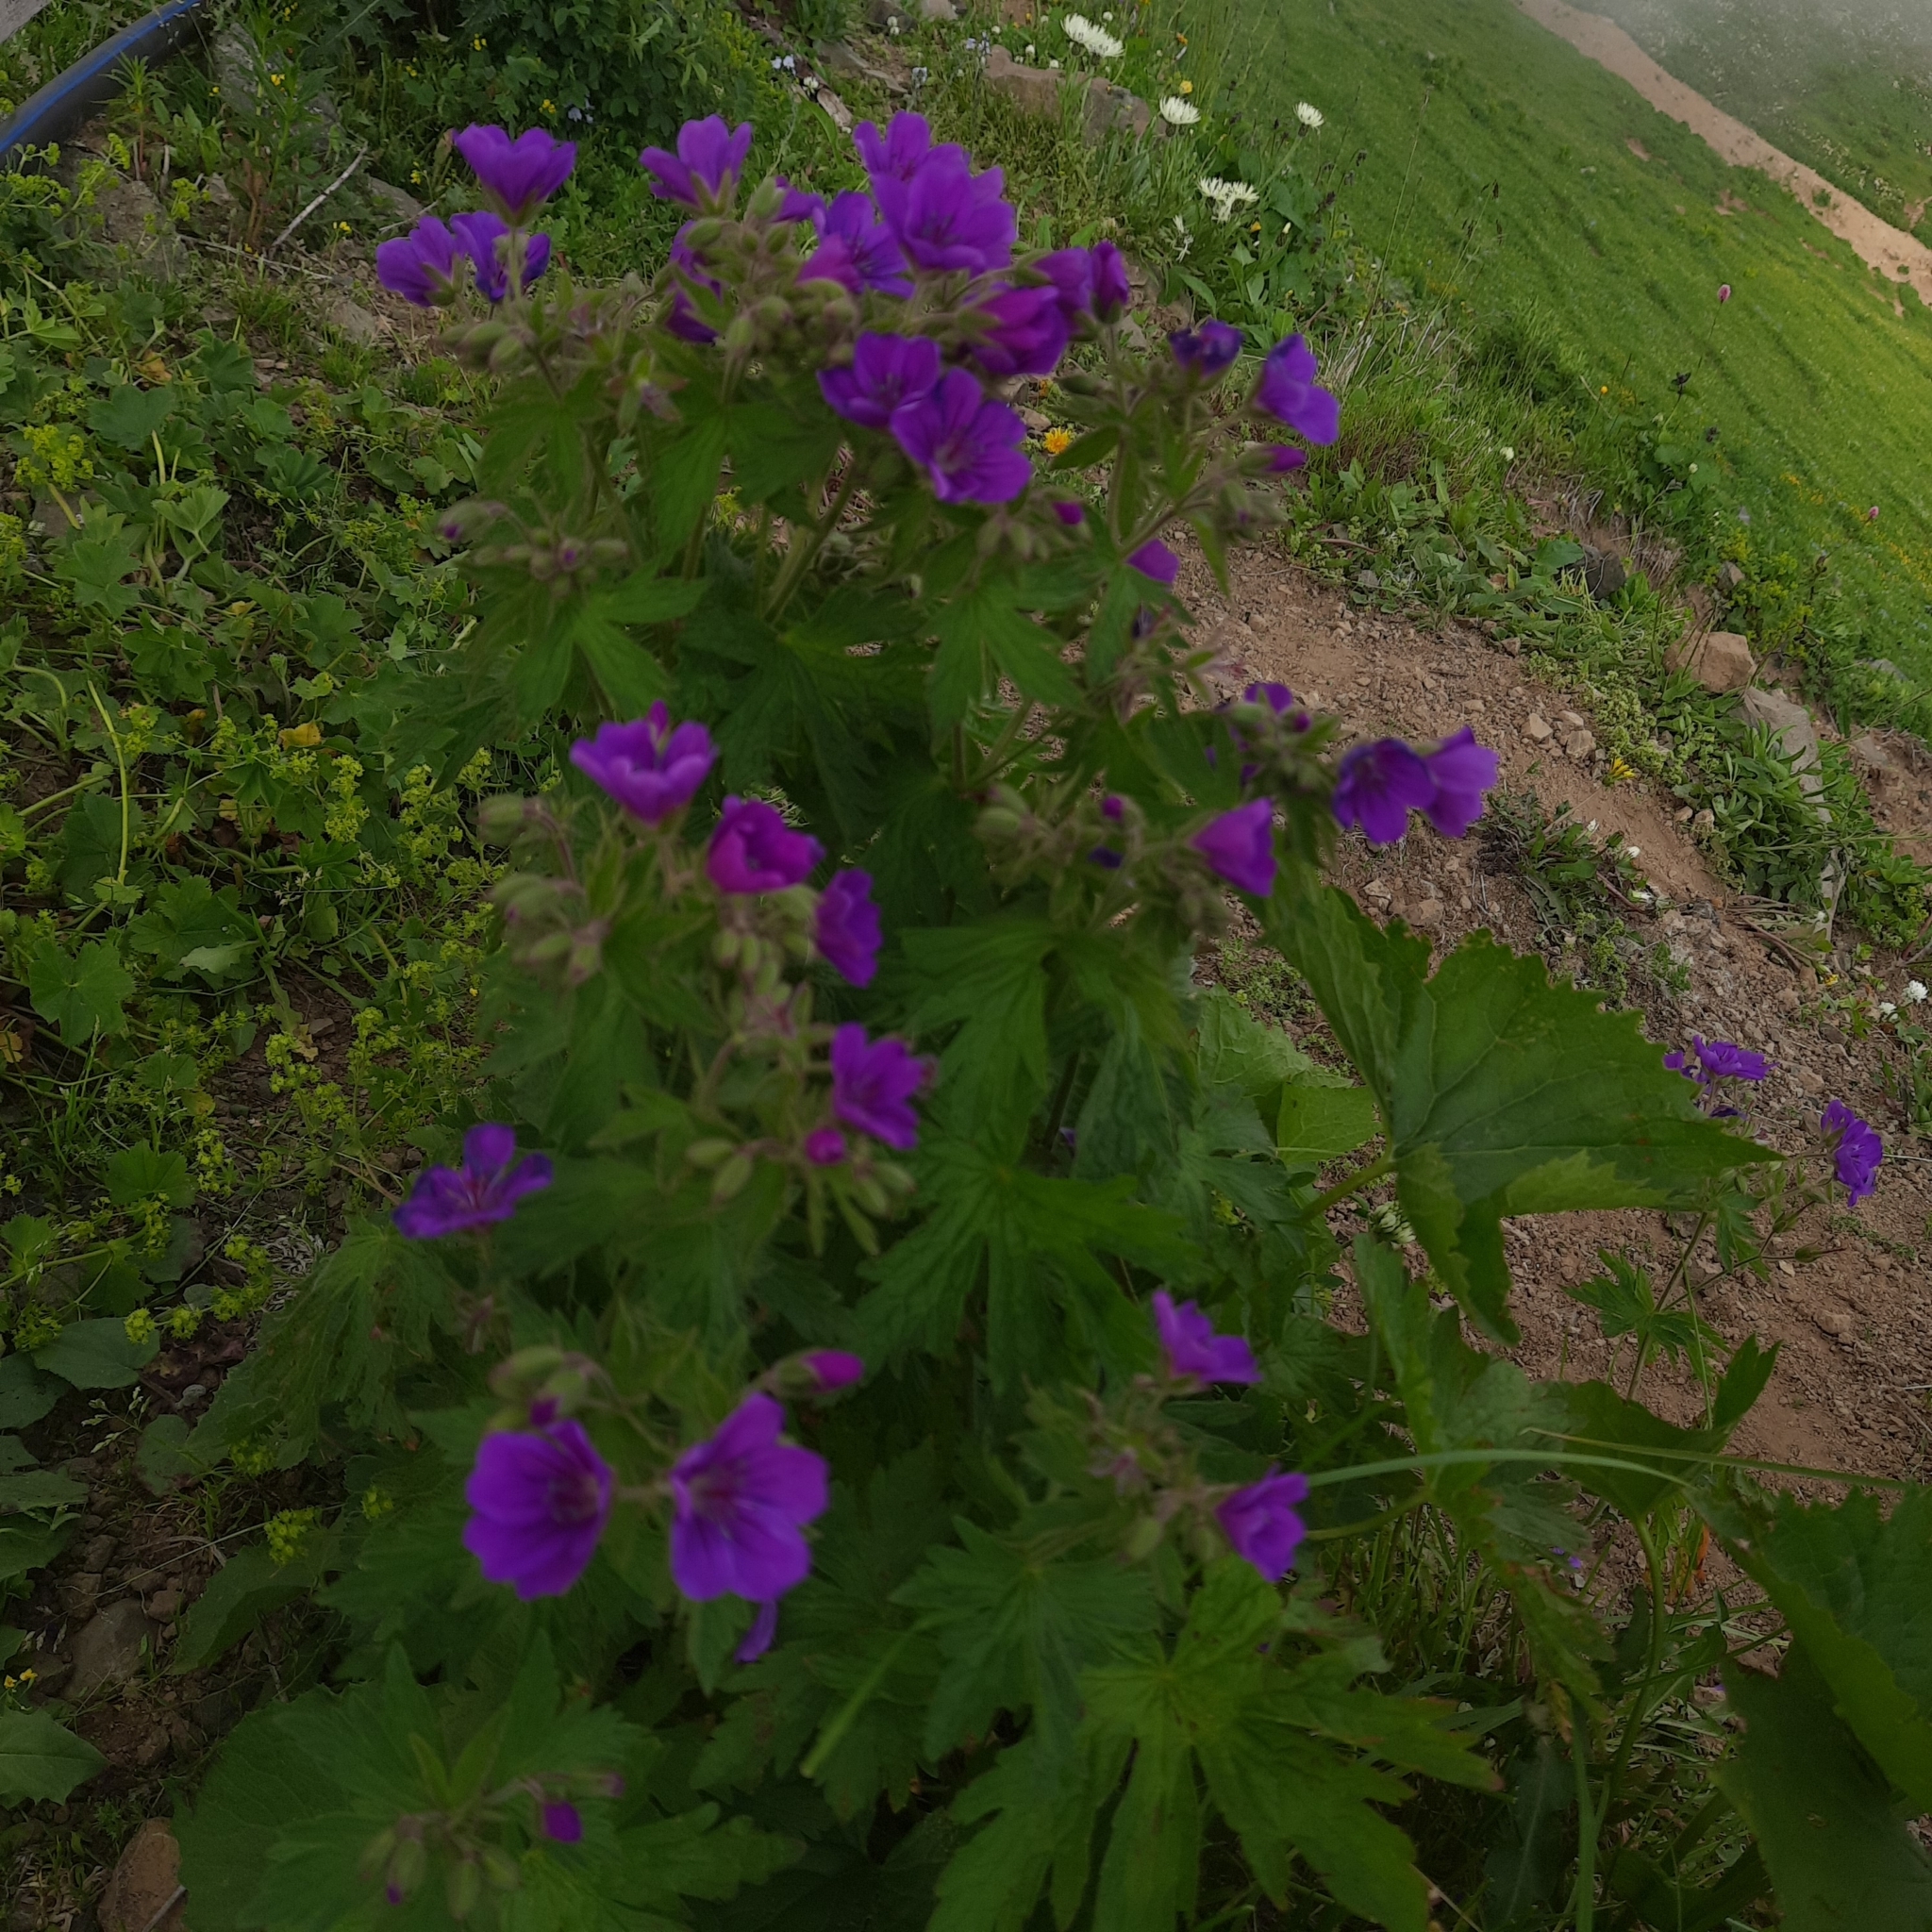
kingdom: Plantae
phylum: Tracheophyta
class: Magnoliopsida
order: Geraniales
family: Geraniaceae
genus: Geranium
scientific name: Geranium sylvaticum
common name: Wood crane's-bill
